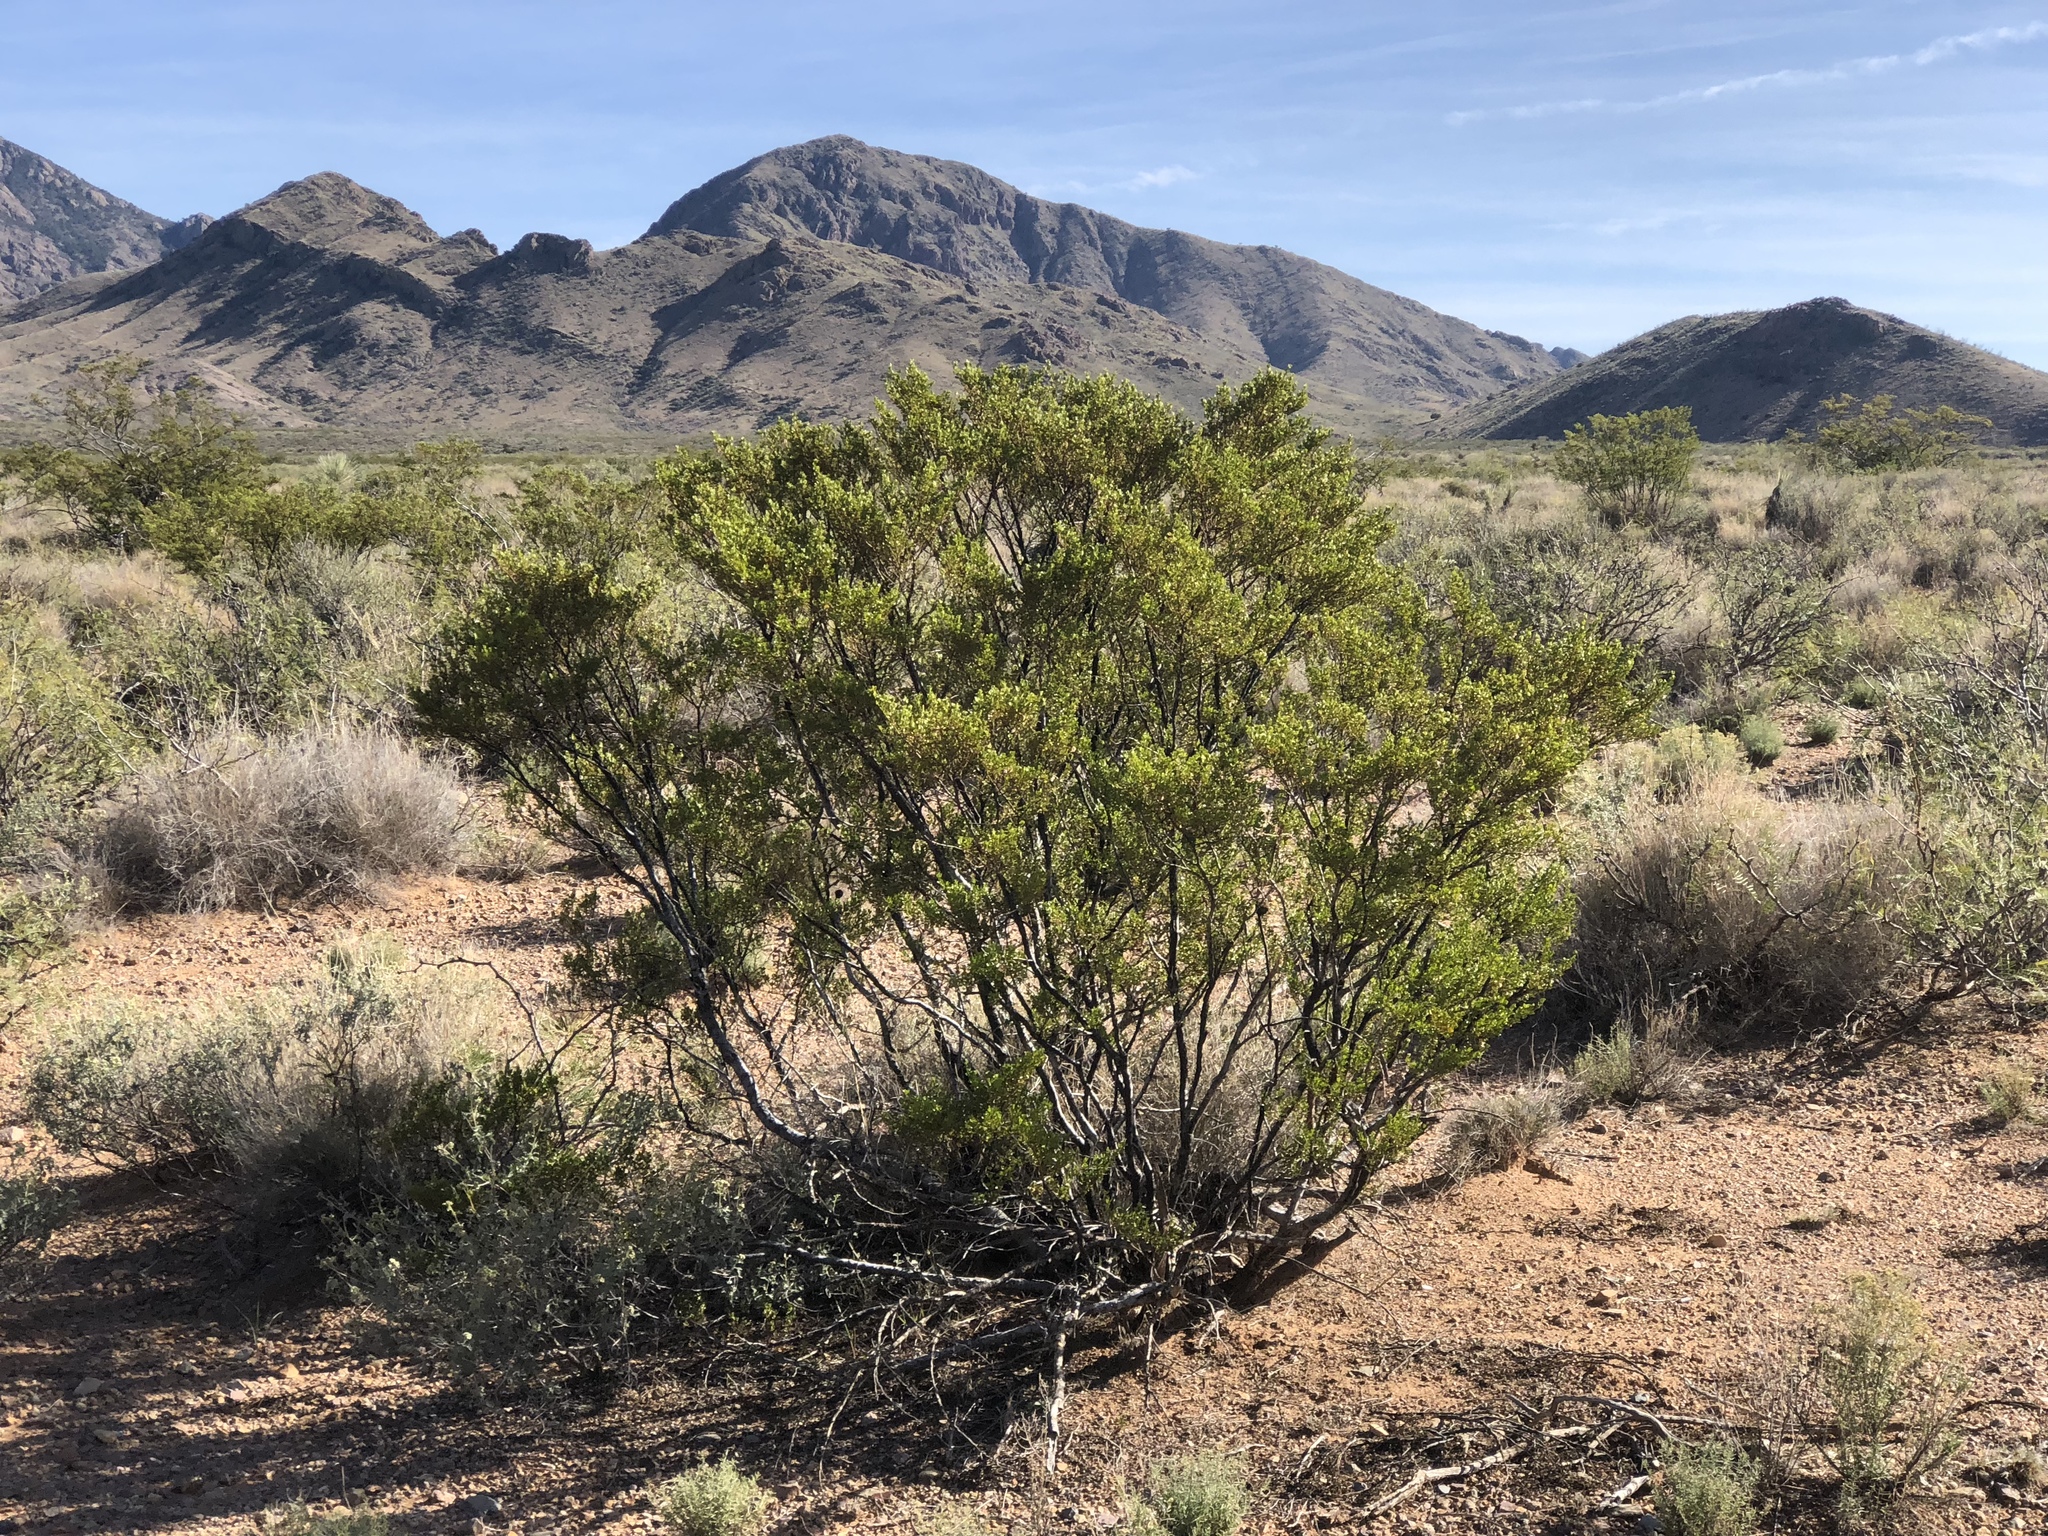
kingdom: Plantae
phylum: Tracheophyta
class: Magnoliopsida
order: Zygophyllales
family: Zygophyllaceae
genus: Larrea
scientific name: Larrea tridentata
